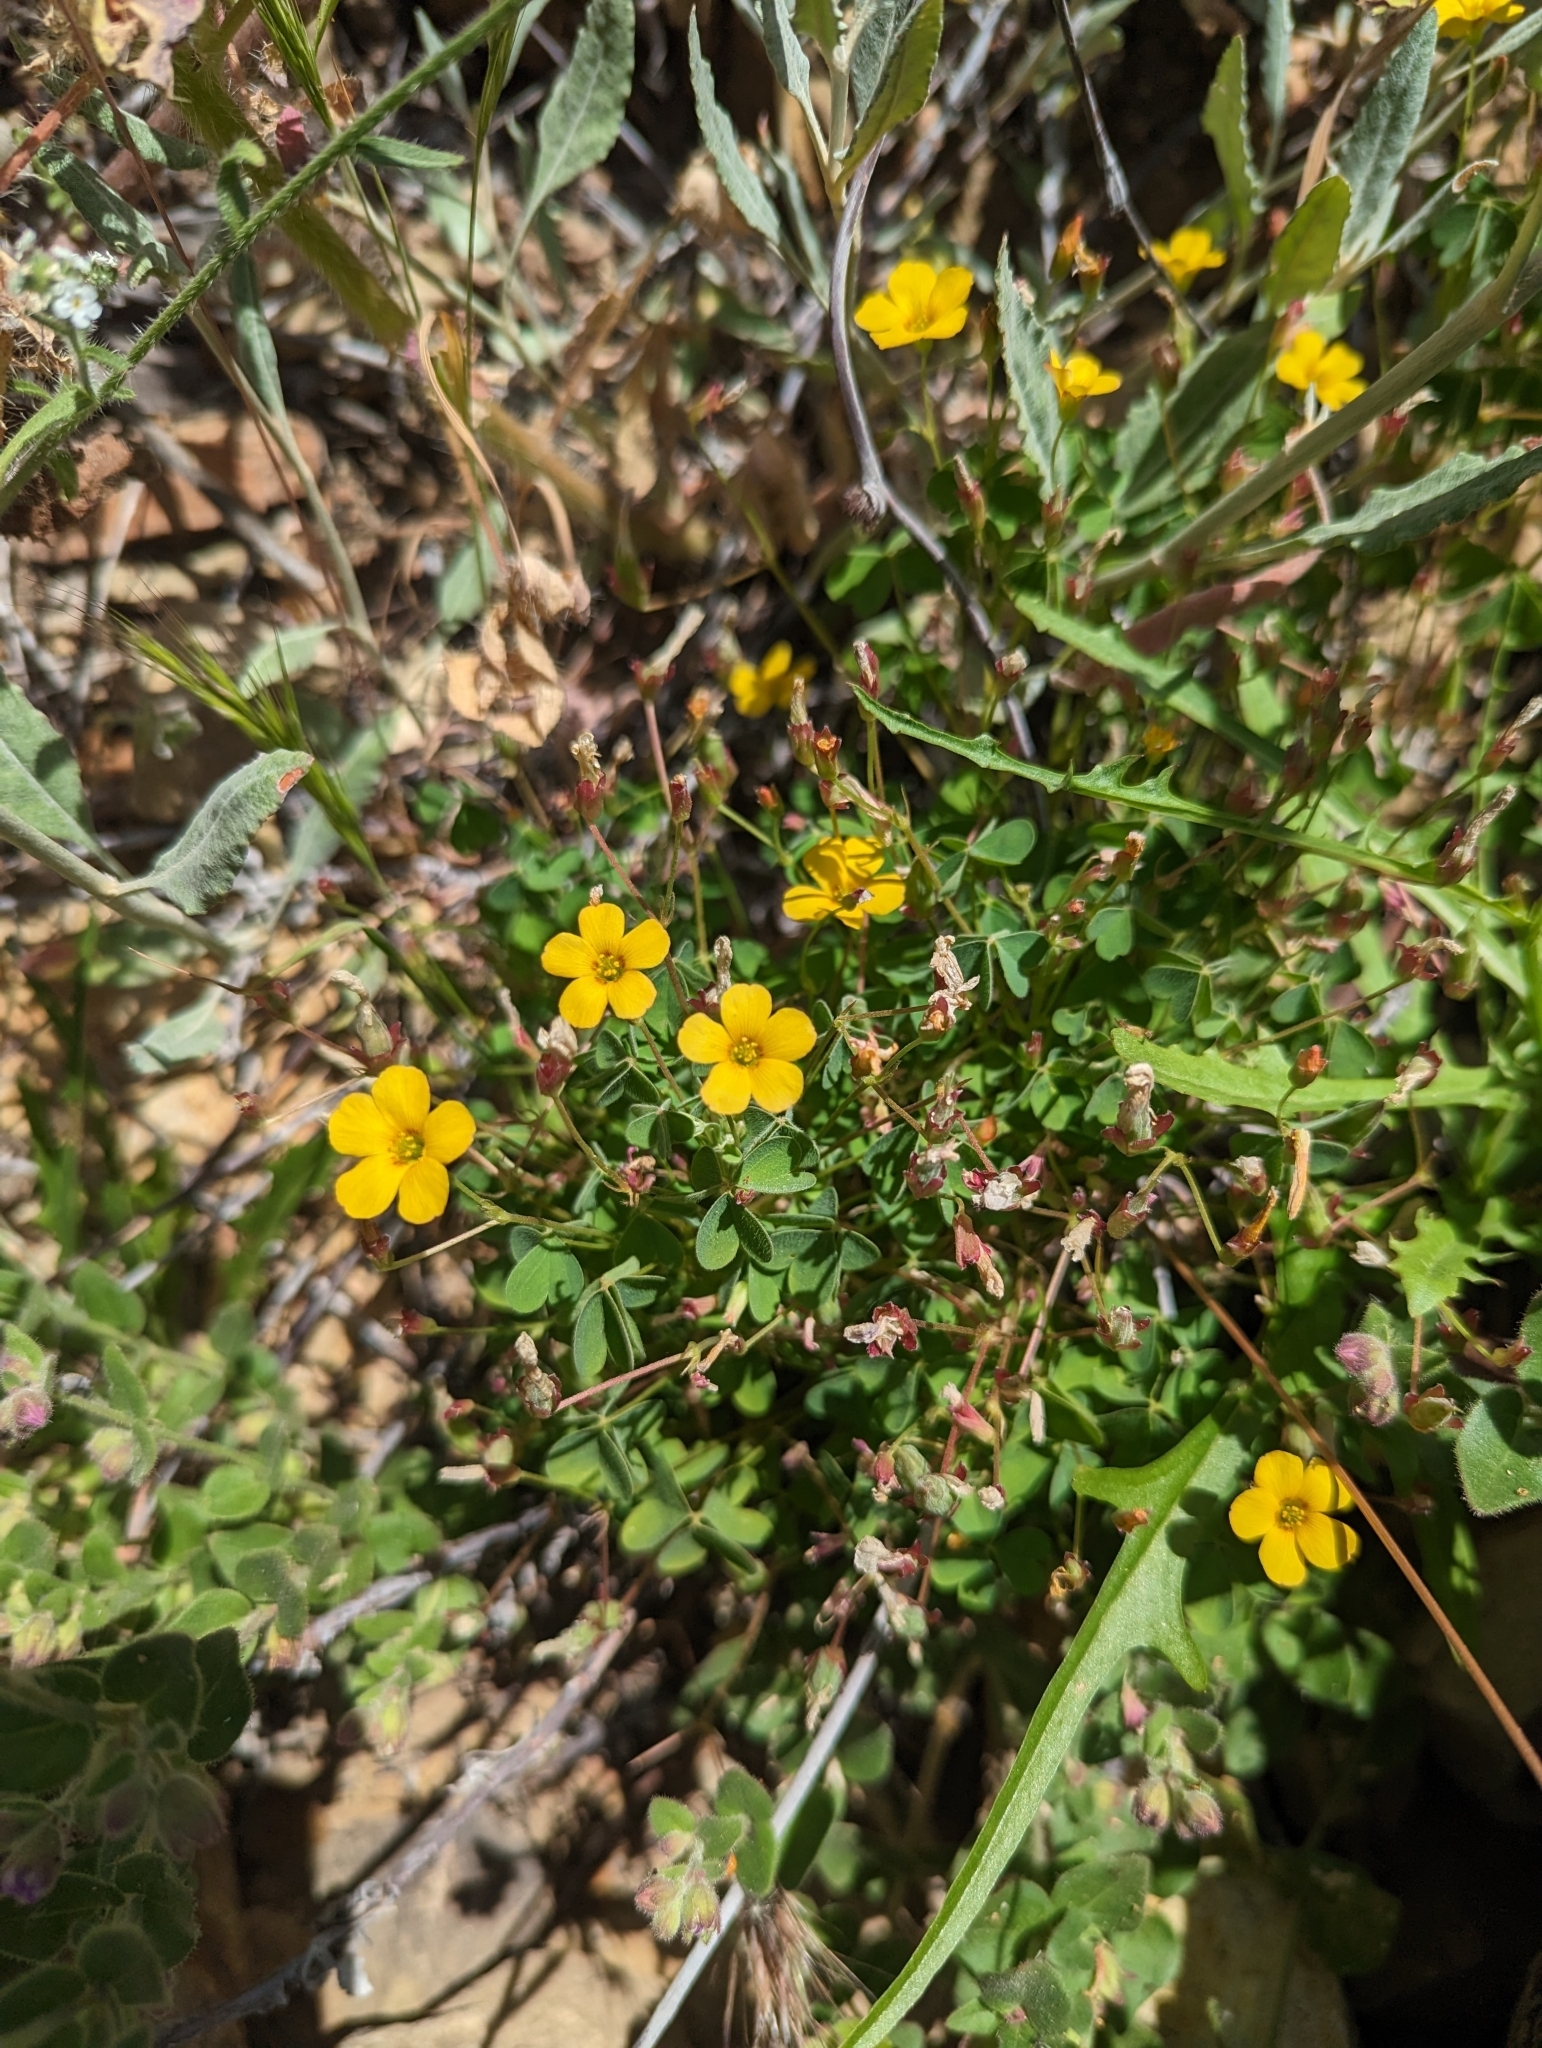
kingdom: Plantae
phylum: Tracheophyta
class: Magnoliopsida
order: Oxalidales
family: Oxalidaceae
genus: Oxalis
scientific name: Oxalis californica
